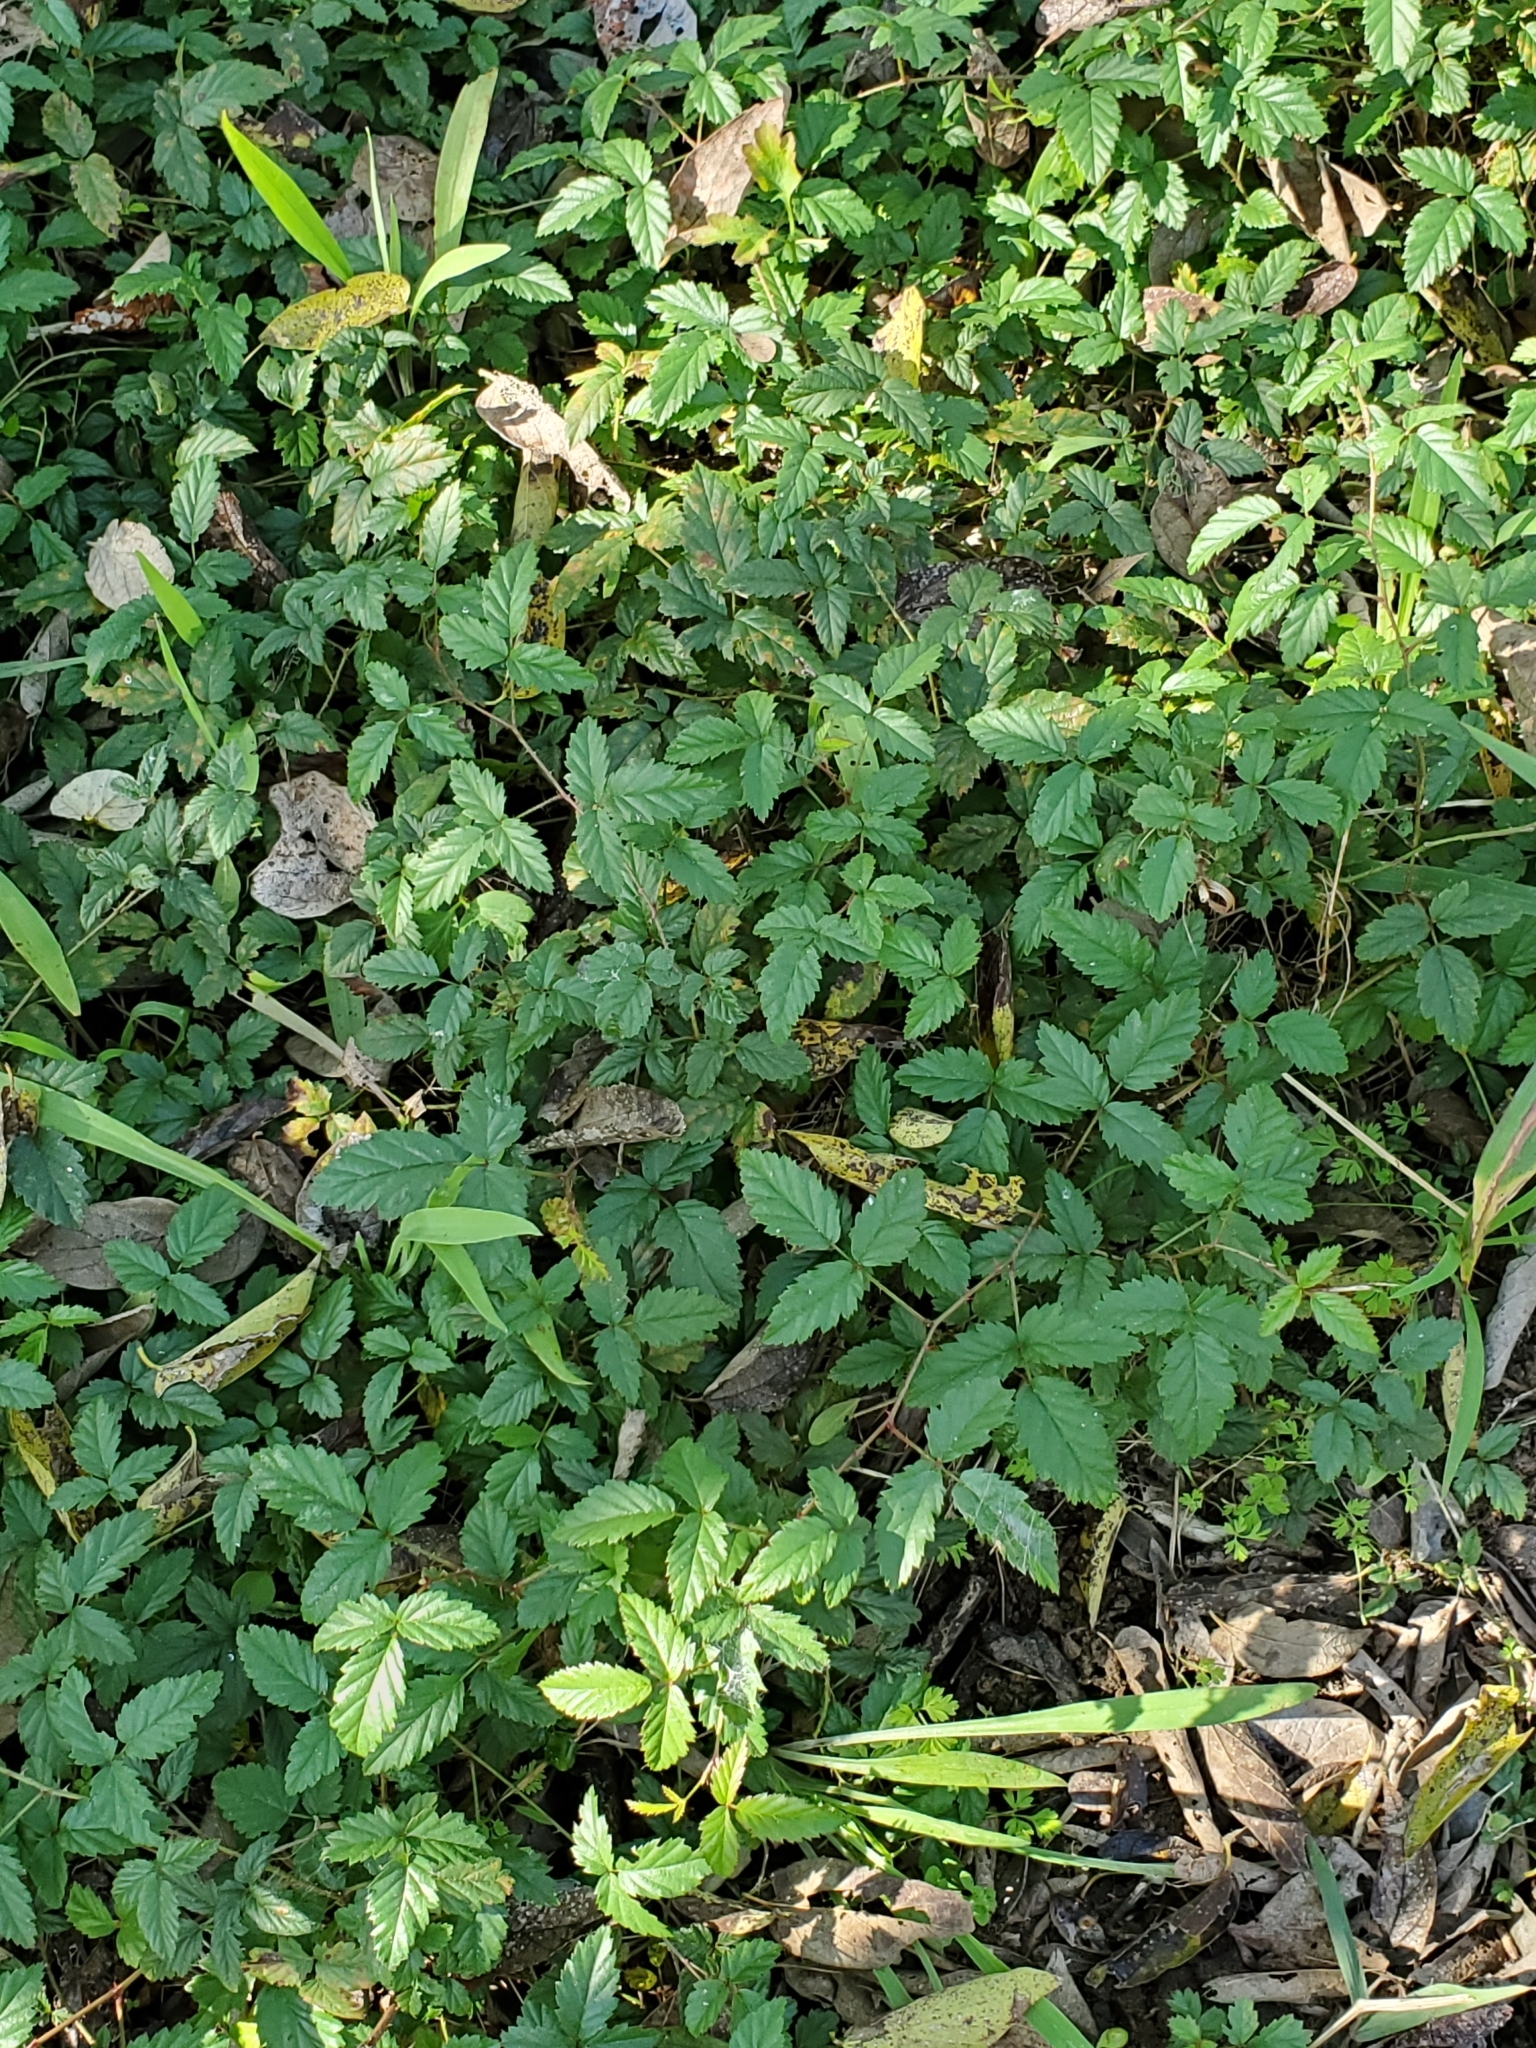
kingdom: Plantae
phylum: Tracheophyta
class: Magnoliopsida
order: Rosales
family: Rosaceae
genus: Rubus
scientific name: Rubus trivialis
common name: Southern dewberry
